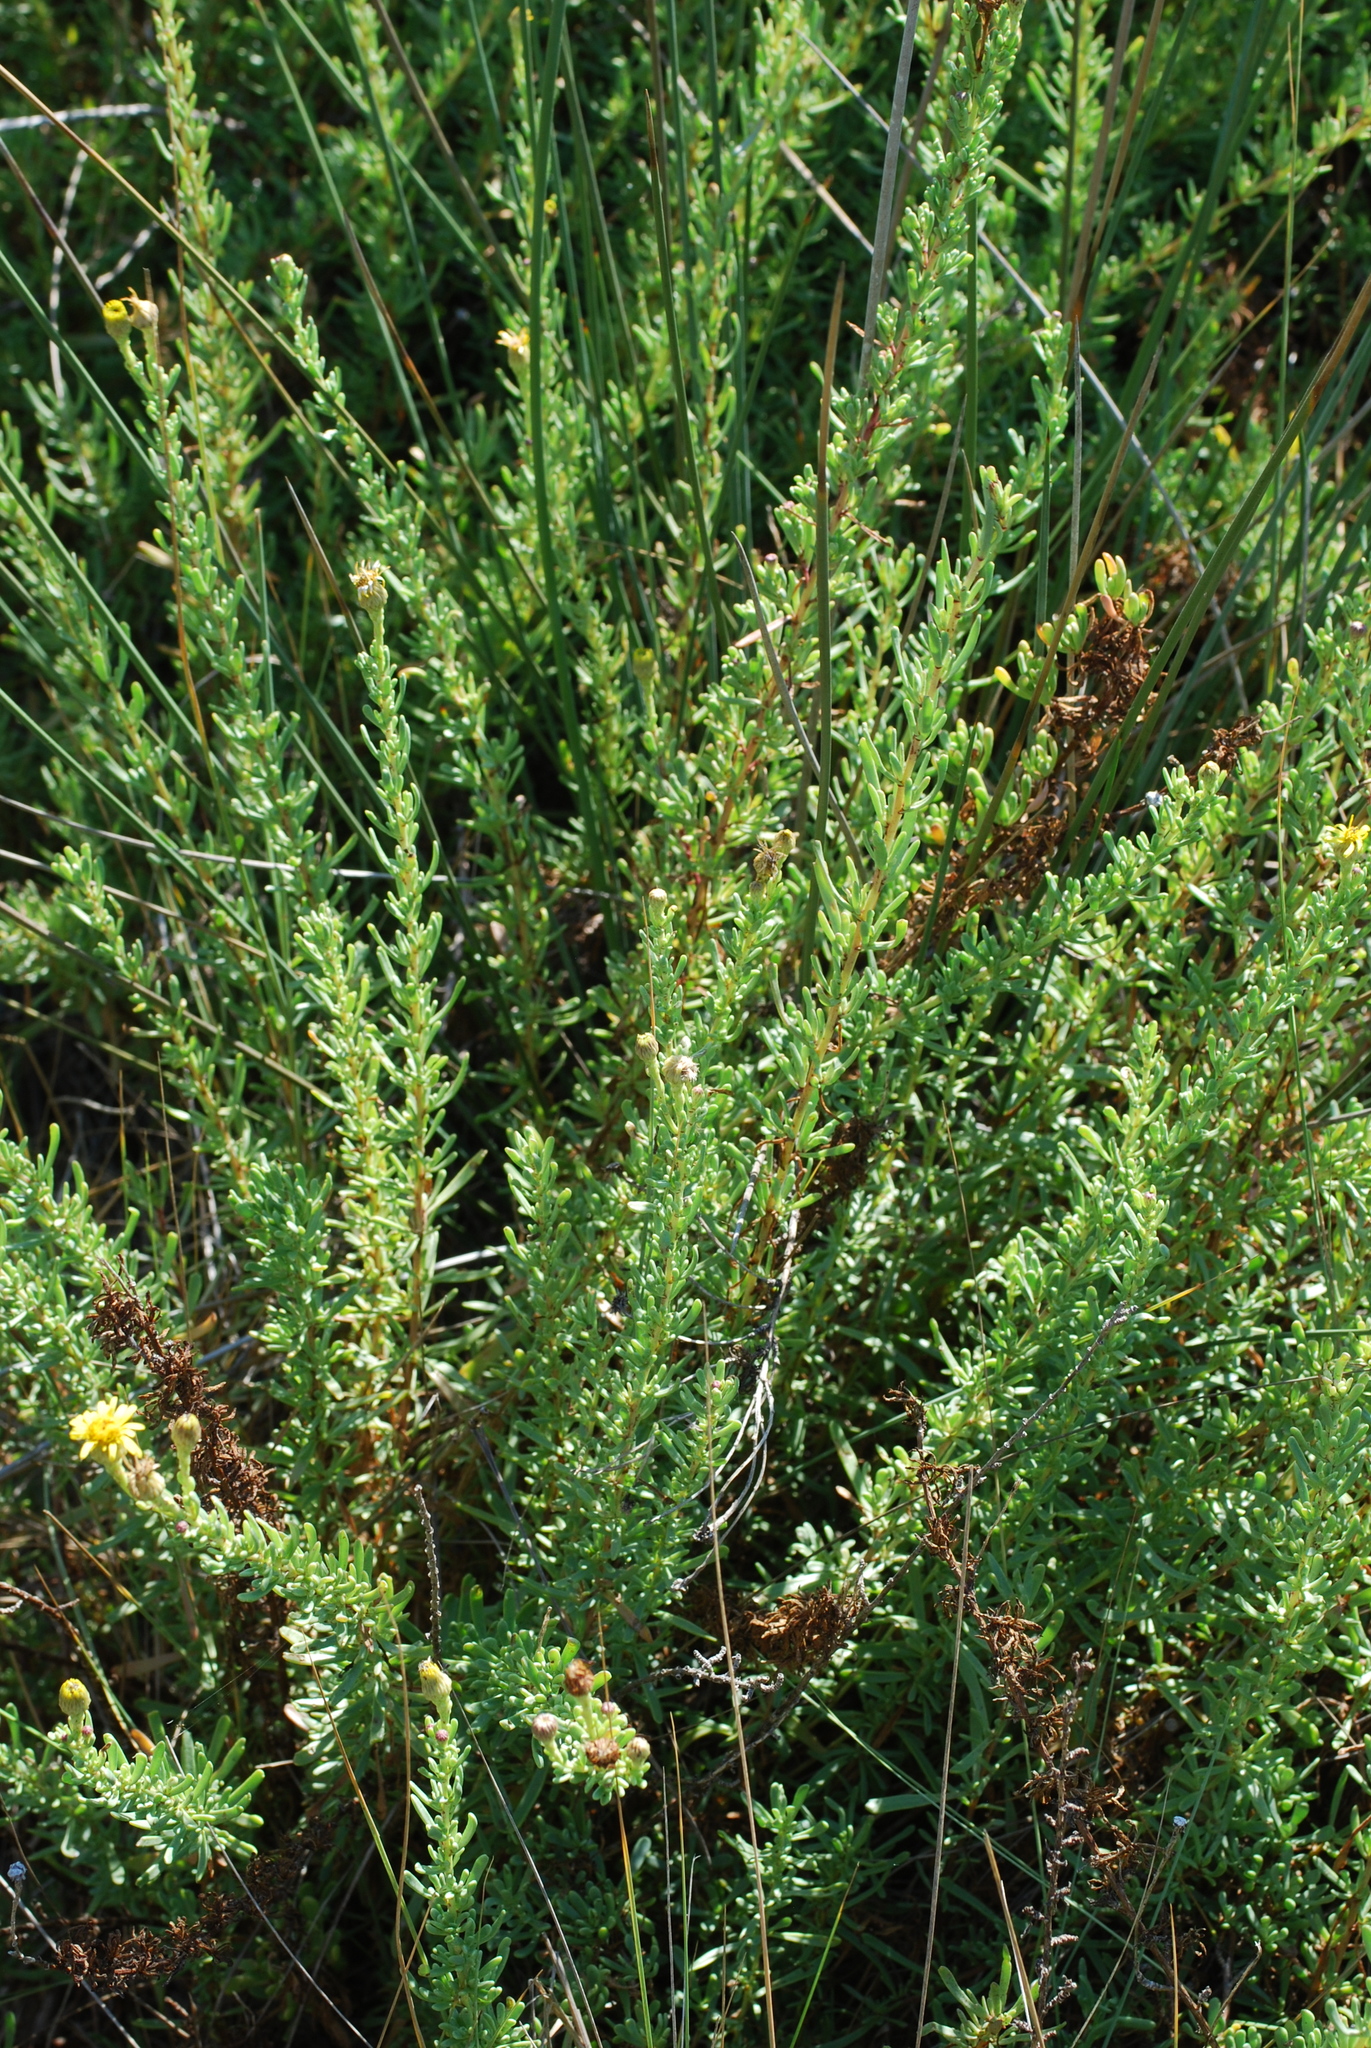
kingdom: Plantae
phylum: Tracheophyta
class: Magnoliopsida
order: Asterales
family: Asteraceae
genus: Limbarda
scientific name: Limbarda crithmoides
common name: Golden samphire
